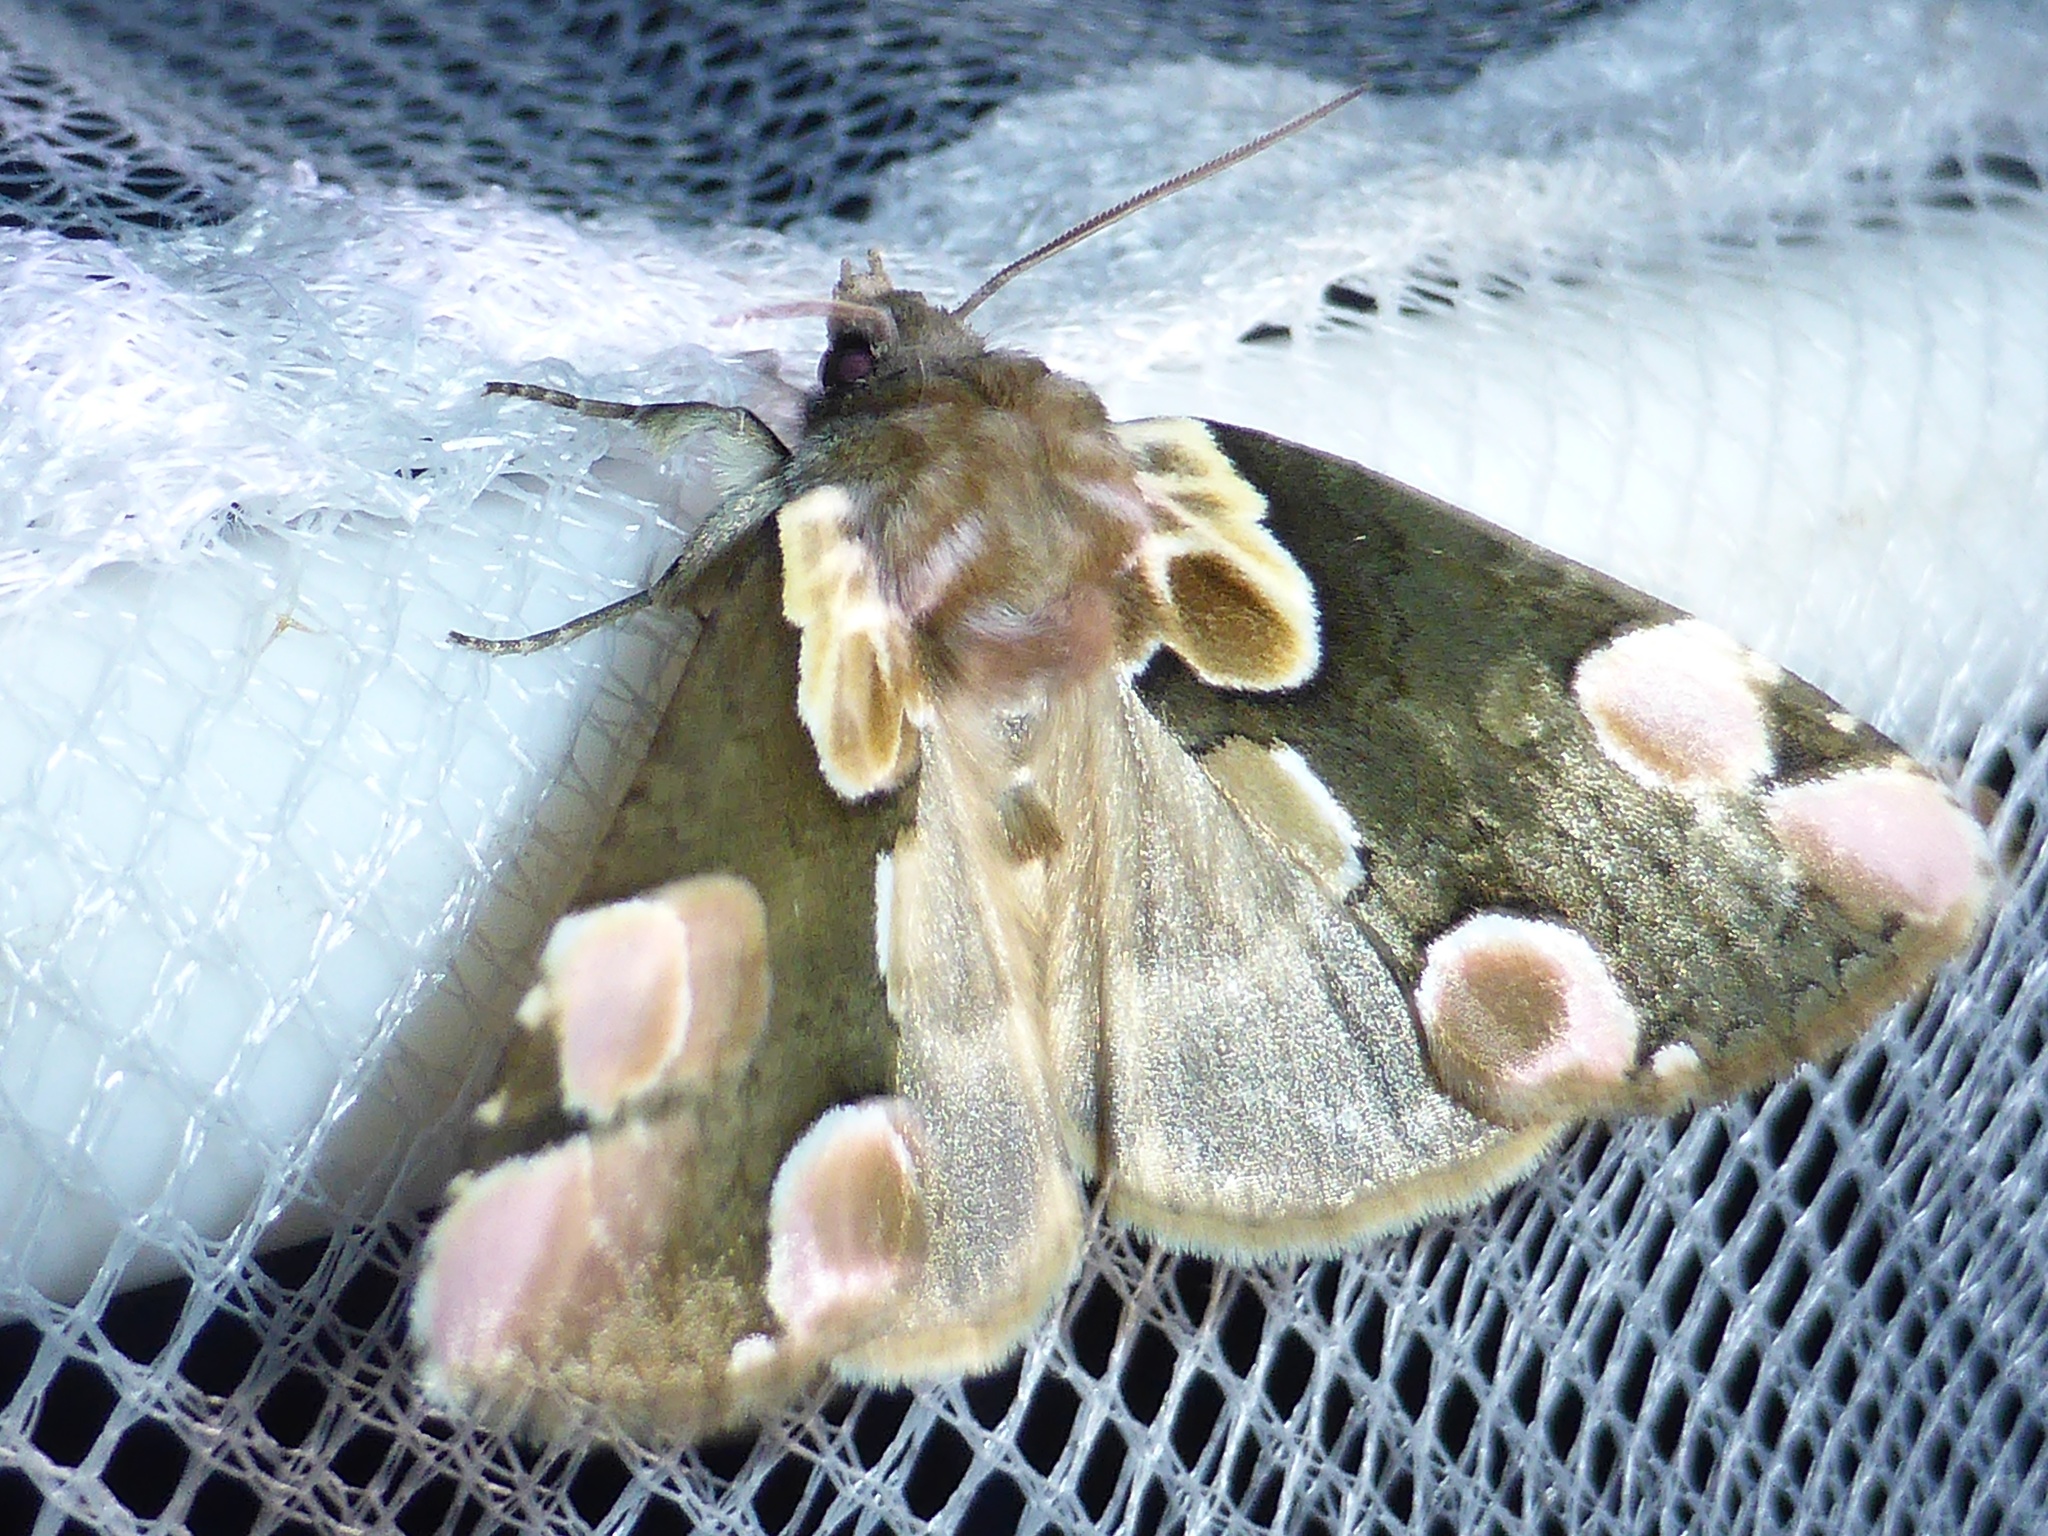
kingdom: Animalia
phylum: Arthropoda
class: Insecta
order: Lepidoptera
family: Drepanidae
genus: Thyatira
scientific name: Thyatira batis
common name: Peach blossom
